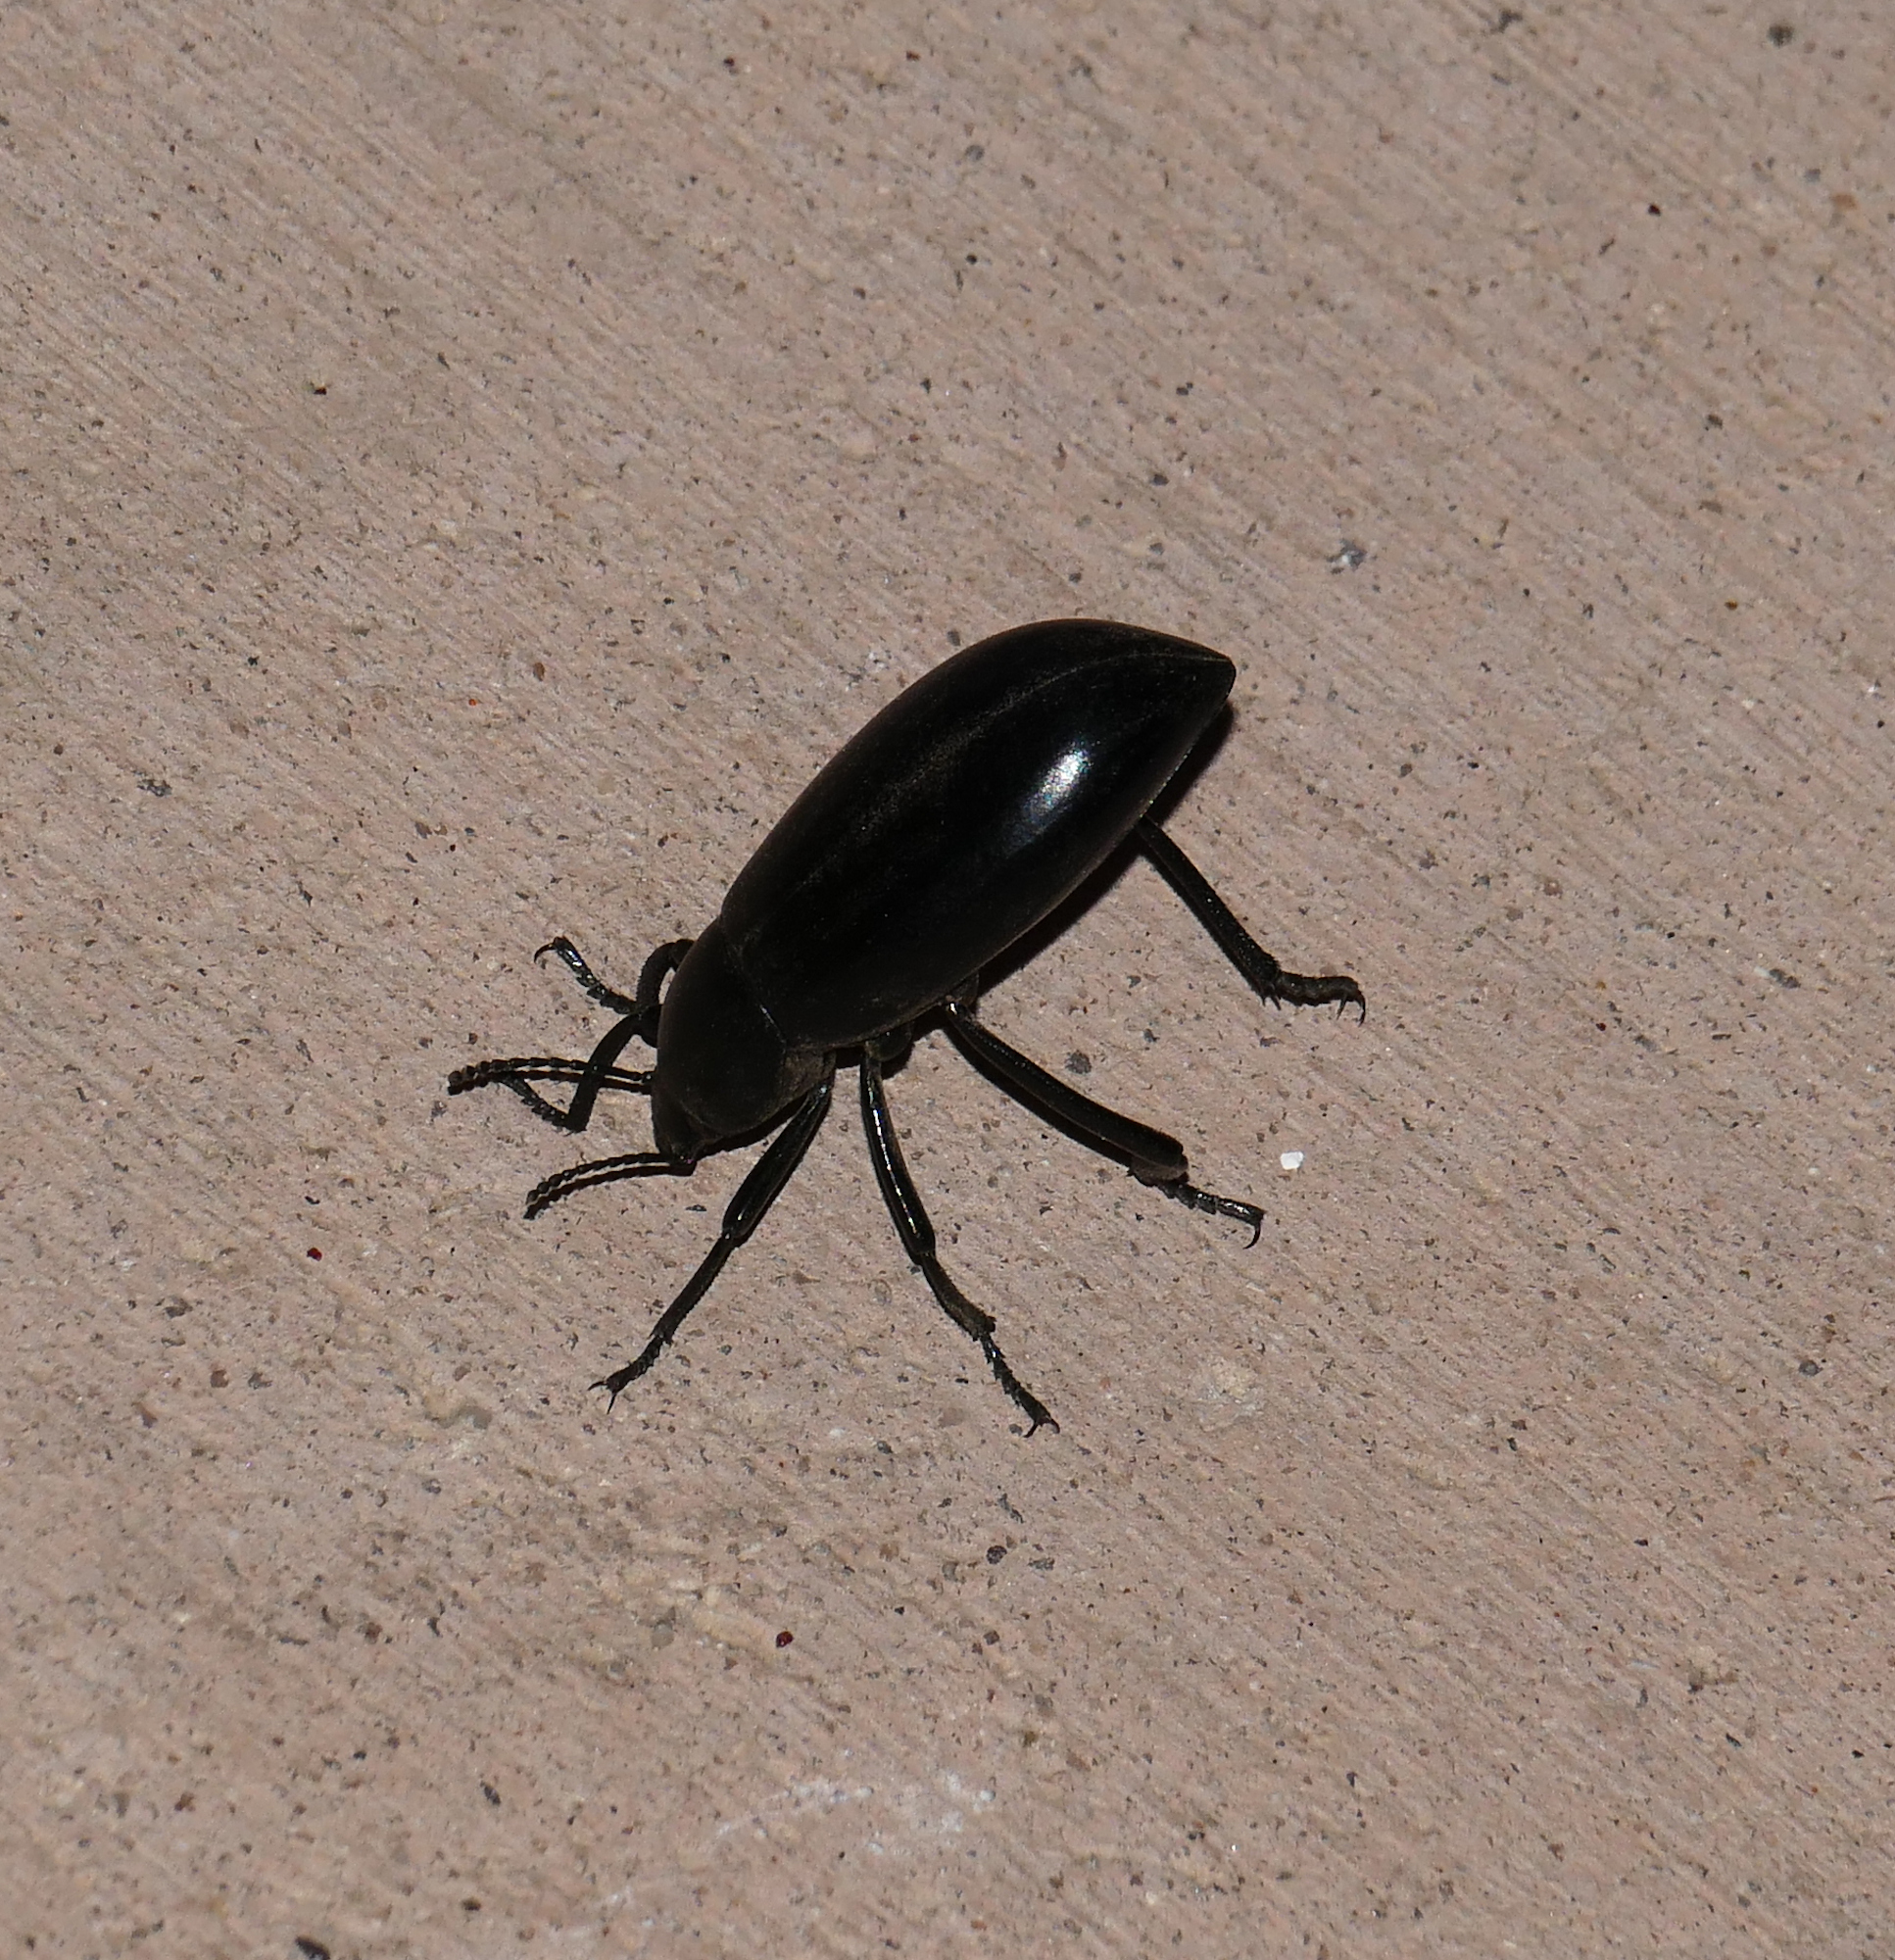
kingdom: Animalia
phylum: Arthropoda
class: Insecta
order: Coleoptera
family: Tenebrionidae
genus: Eleodes
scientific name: Eleodes longicollis
